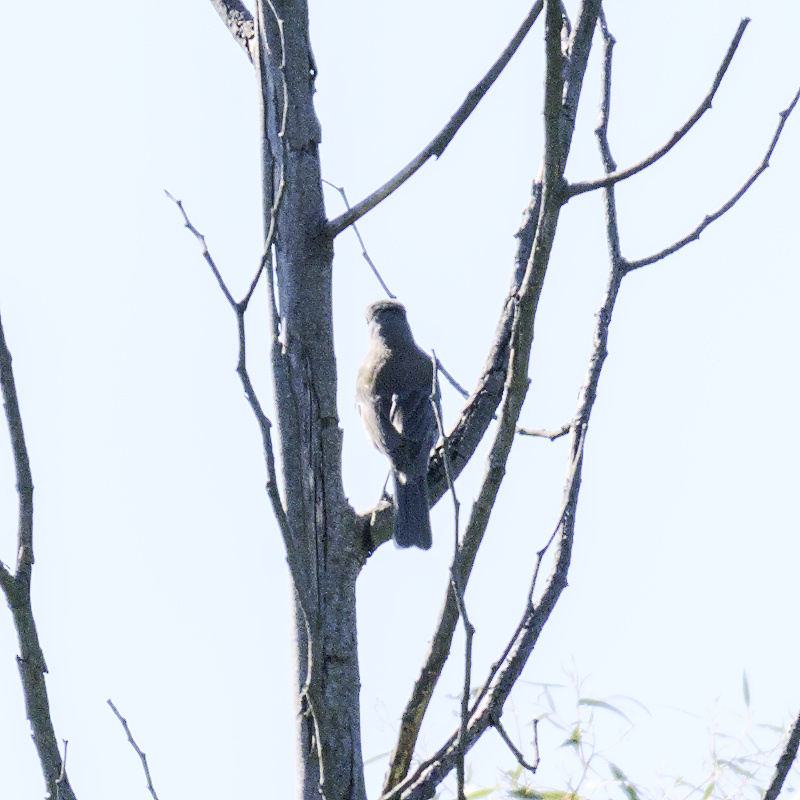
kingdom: Animalia
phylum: Chordata
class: Aves
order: Passeriformes
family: Pachycephalidae
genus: Colluricincla
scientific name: Colluricincla harmonica
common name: Grey shrikethrush
